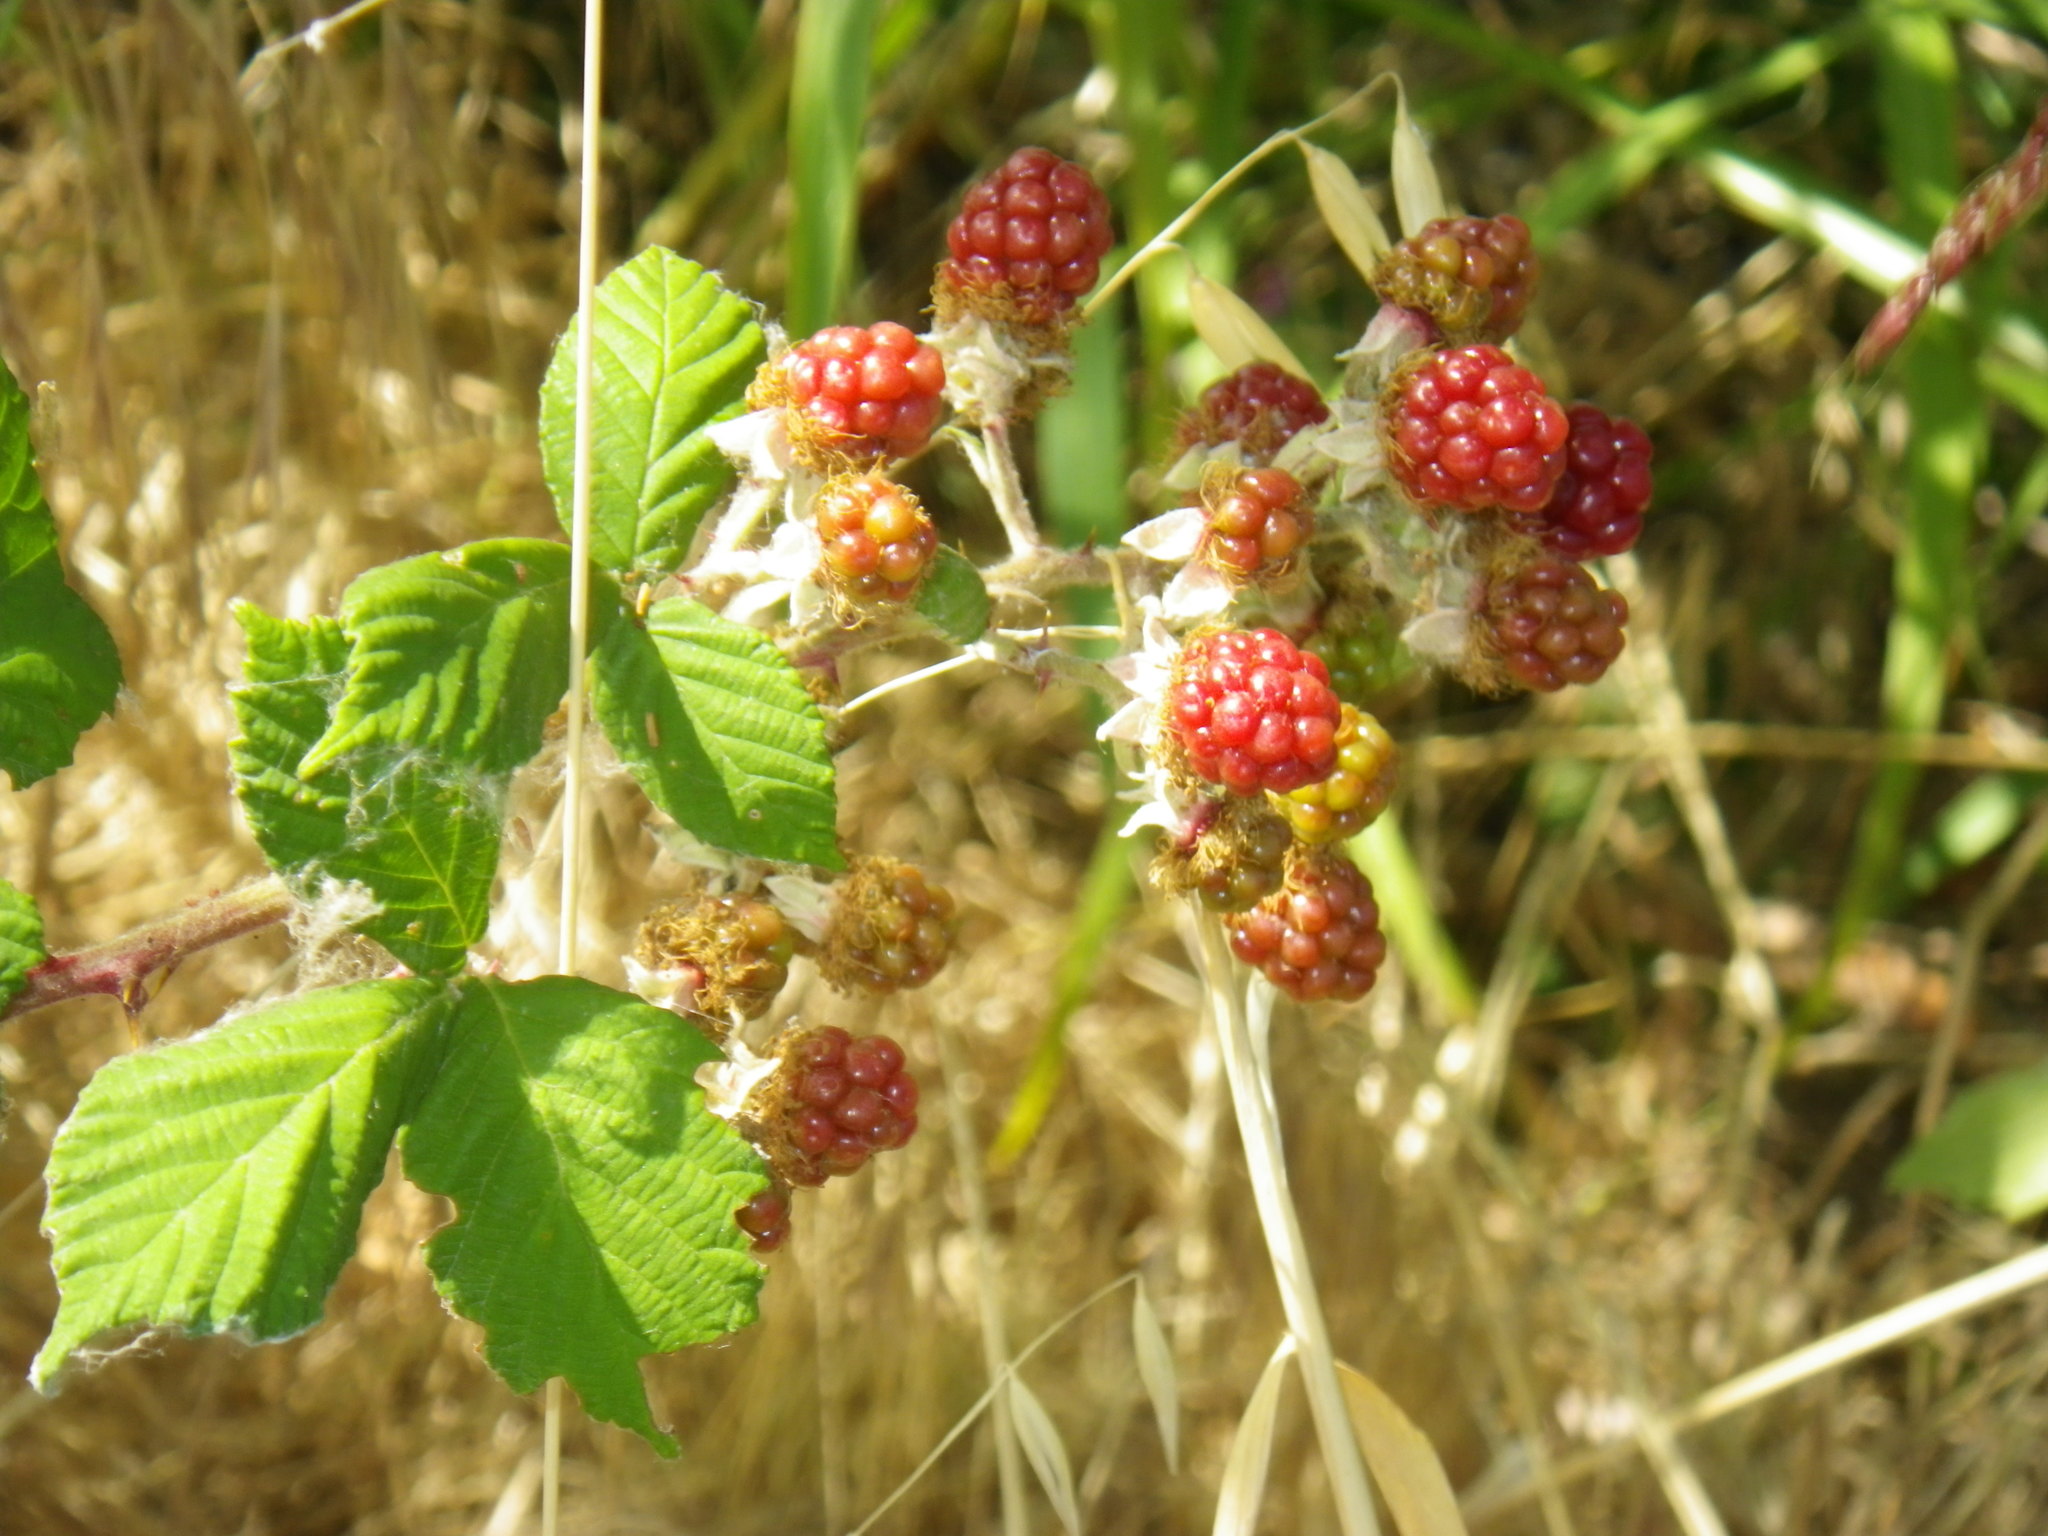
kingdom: Plantae
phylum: Tracheophyta
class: Magnoliopsida
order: Rosales
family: Rosaceae
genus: Rubus
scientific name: Rubus macropetalus
